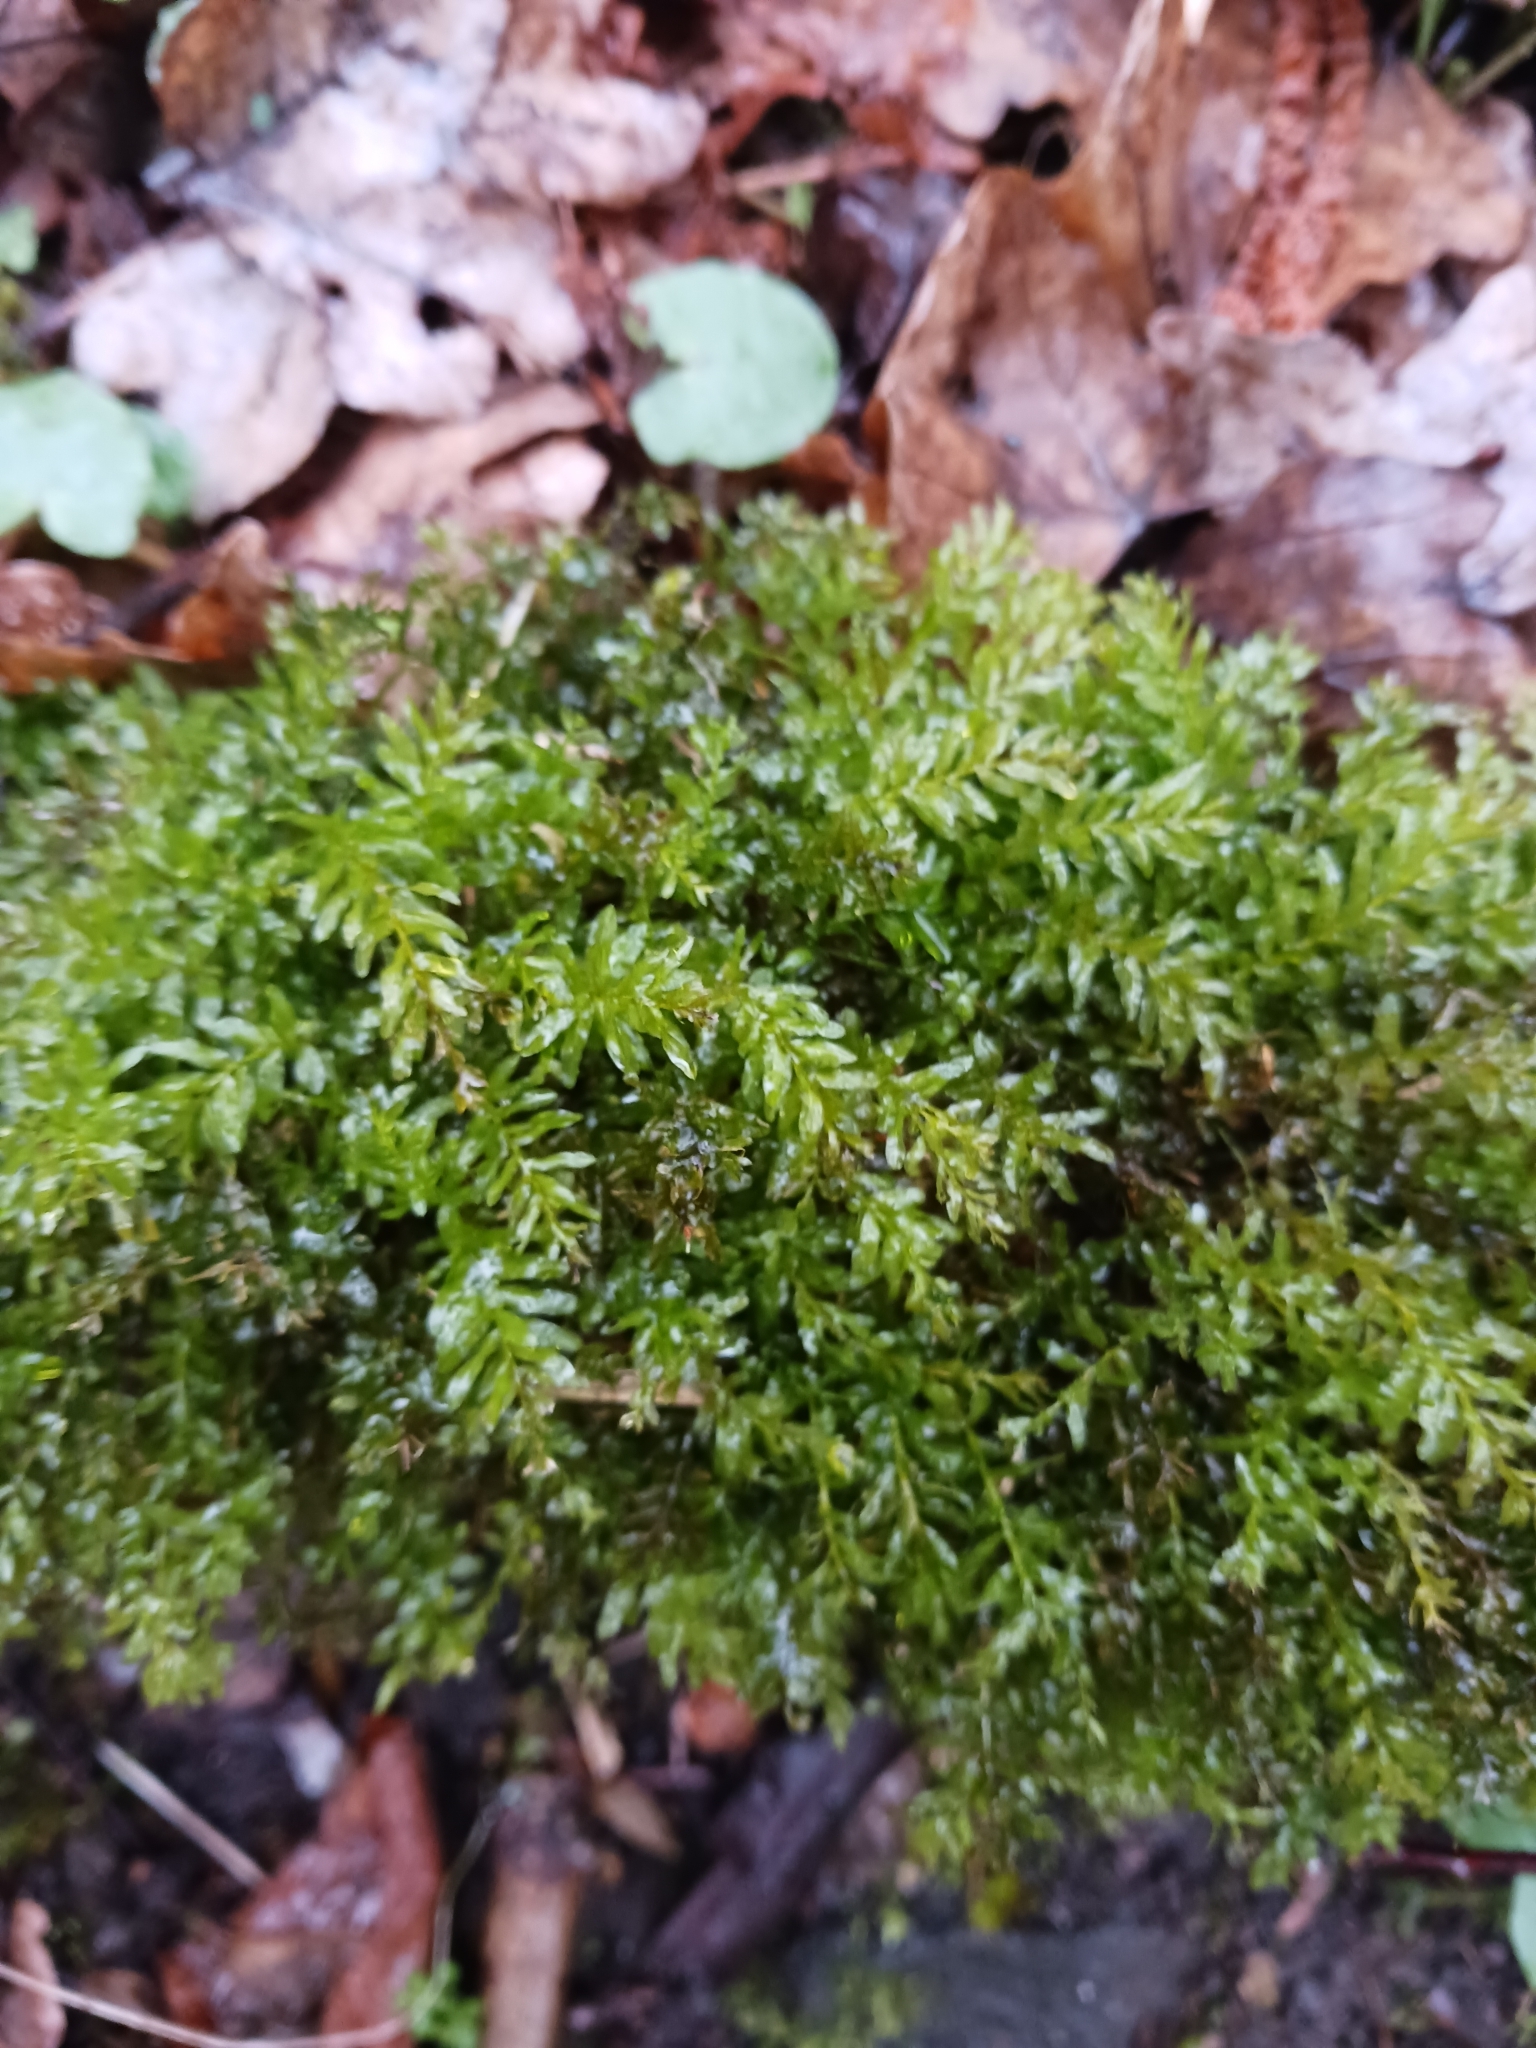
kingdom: Plantae
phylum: Bryophyta
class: Bryopsida
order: Bryales
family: Mniaceae
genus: Plagiomnium
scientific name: Plagiomnium undulatum
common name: Hart's-tongue thyme-moss
